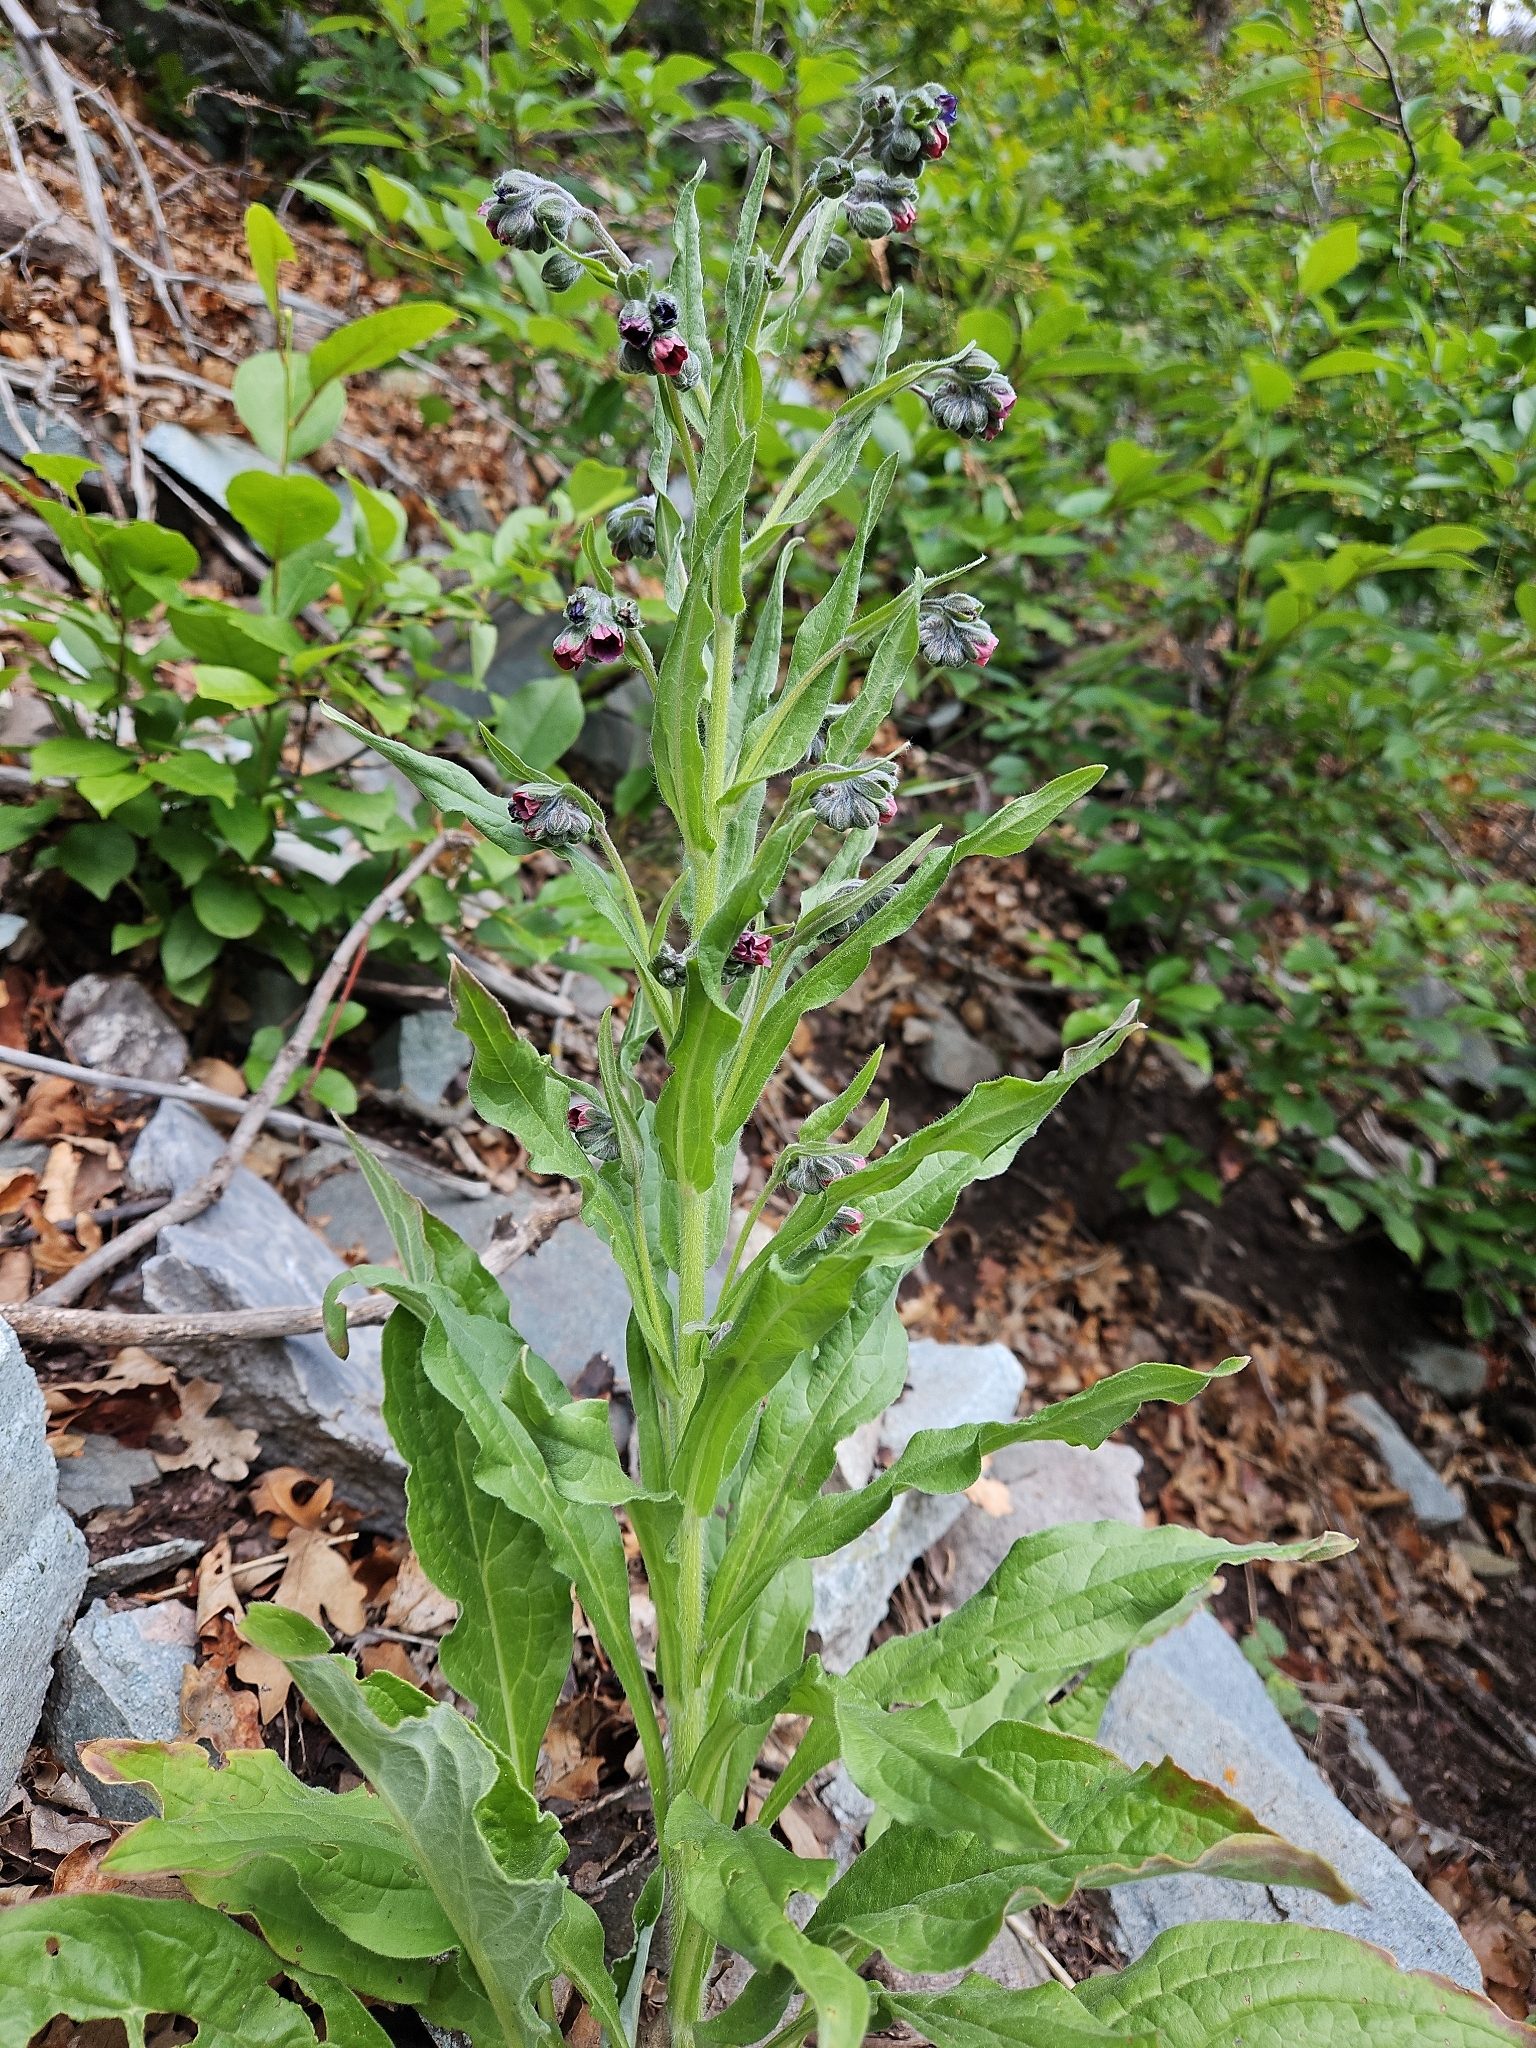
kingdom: Plantae
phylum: Tracheophyta
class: Magnoliopsida
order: Boraginales
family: Boraginaceae
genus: Cynoglossum
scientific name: Cynoglossum officinale
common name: Hound's-tongue
